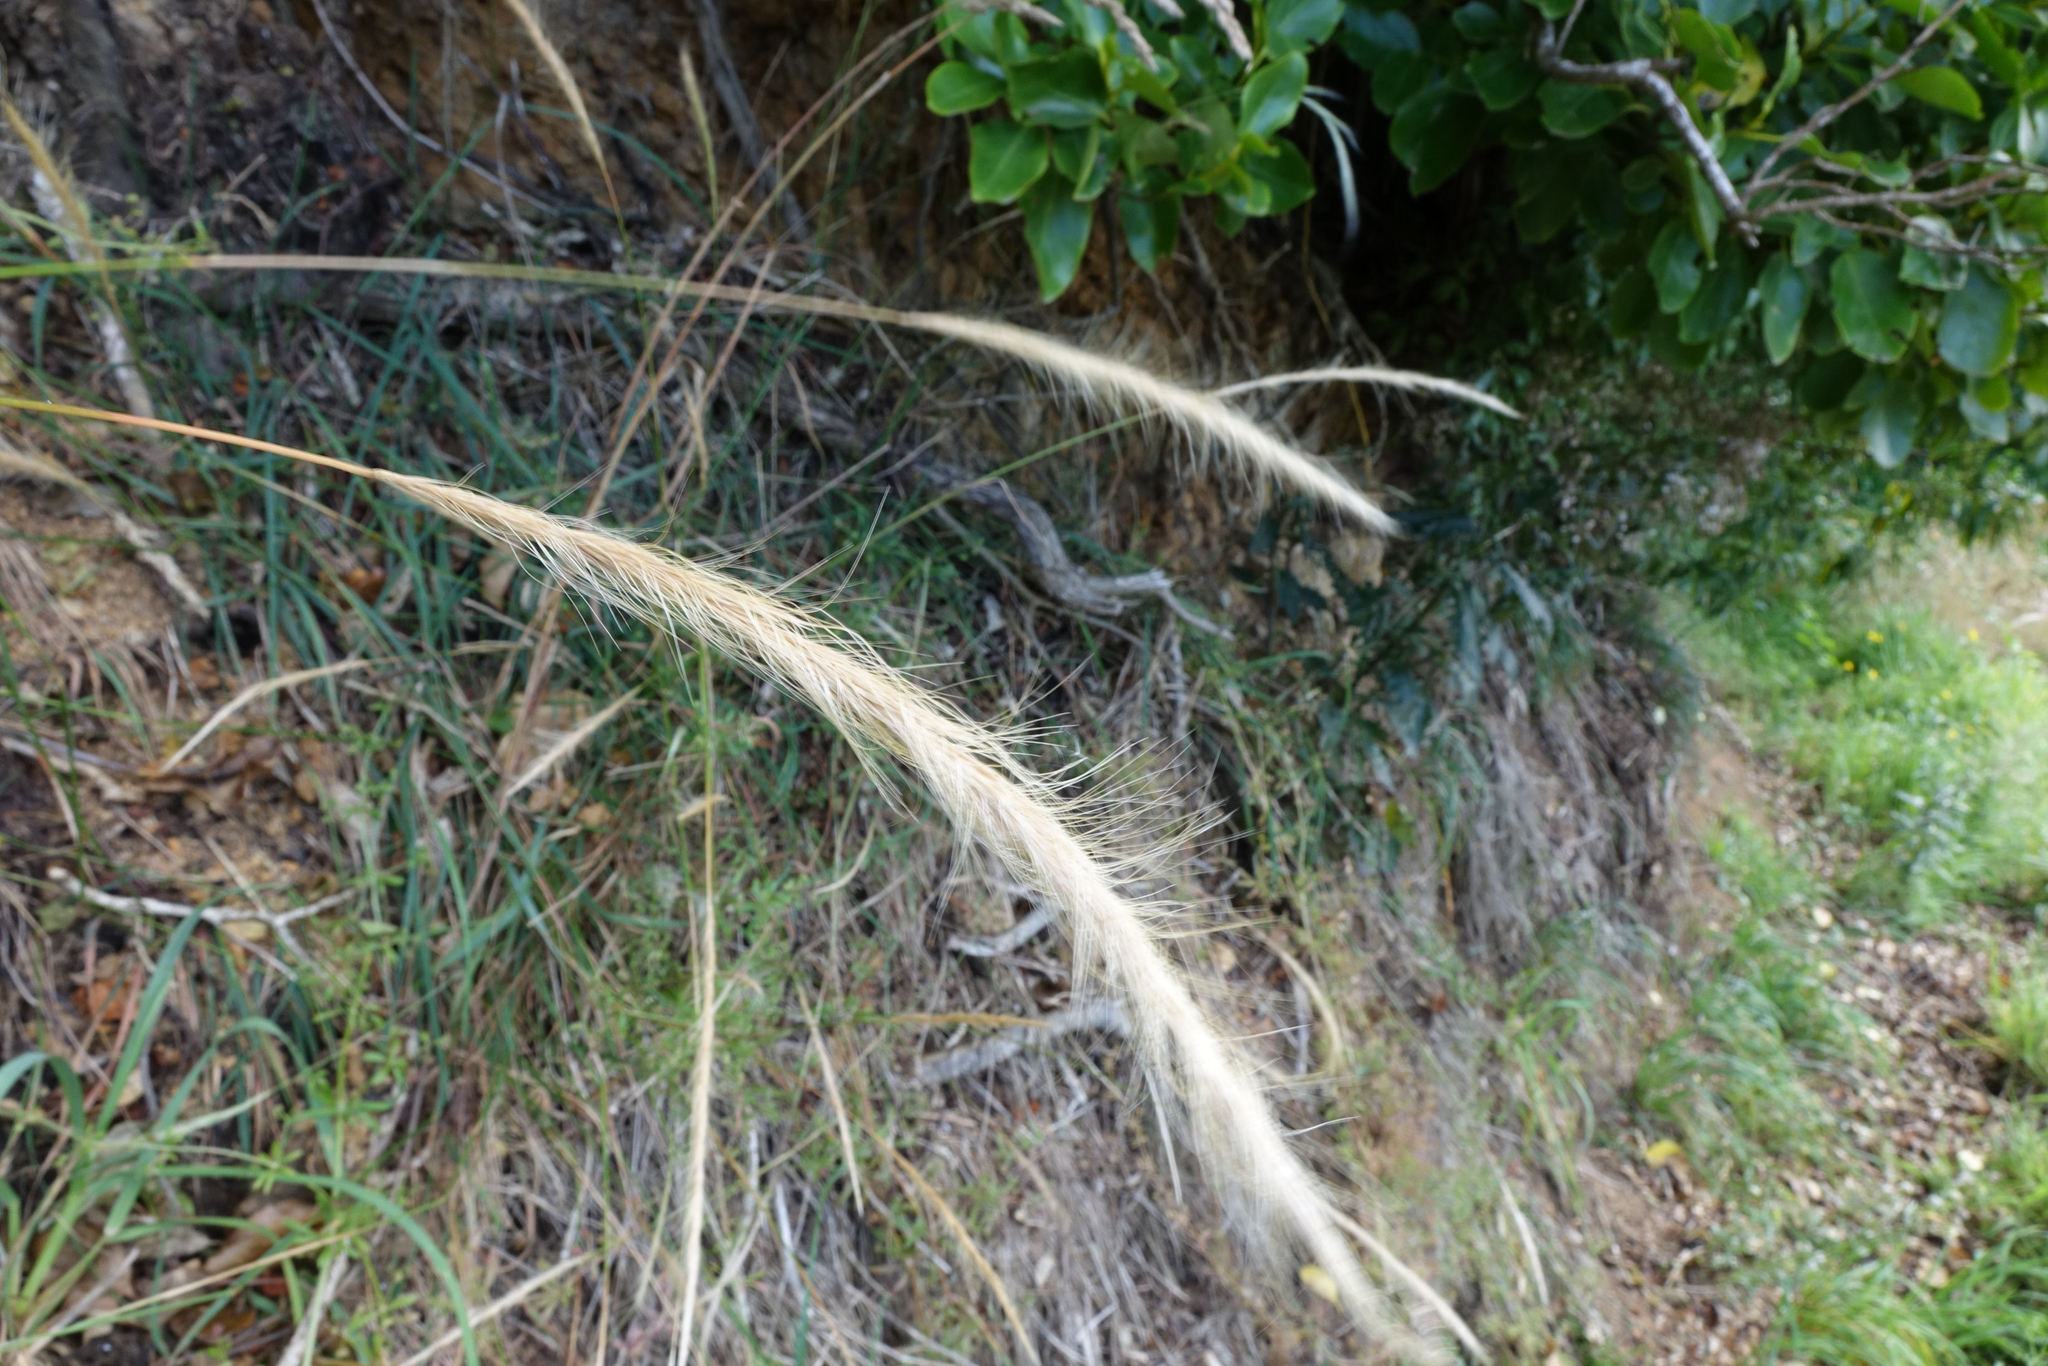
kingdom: Plantae
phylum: Tracheophyta
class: Liliopsida
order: Poales
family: Poaceae
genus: Dichelachne
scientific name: Dichelachne crinita
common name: Clovenfoot plumegrass
